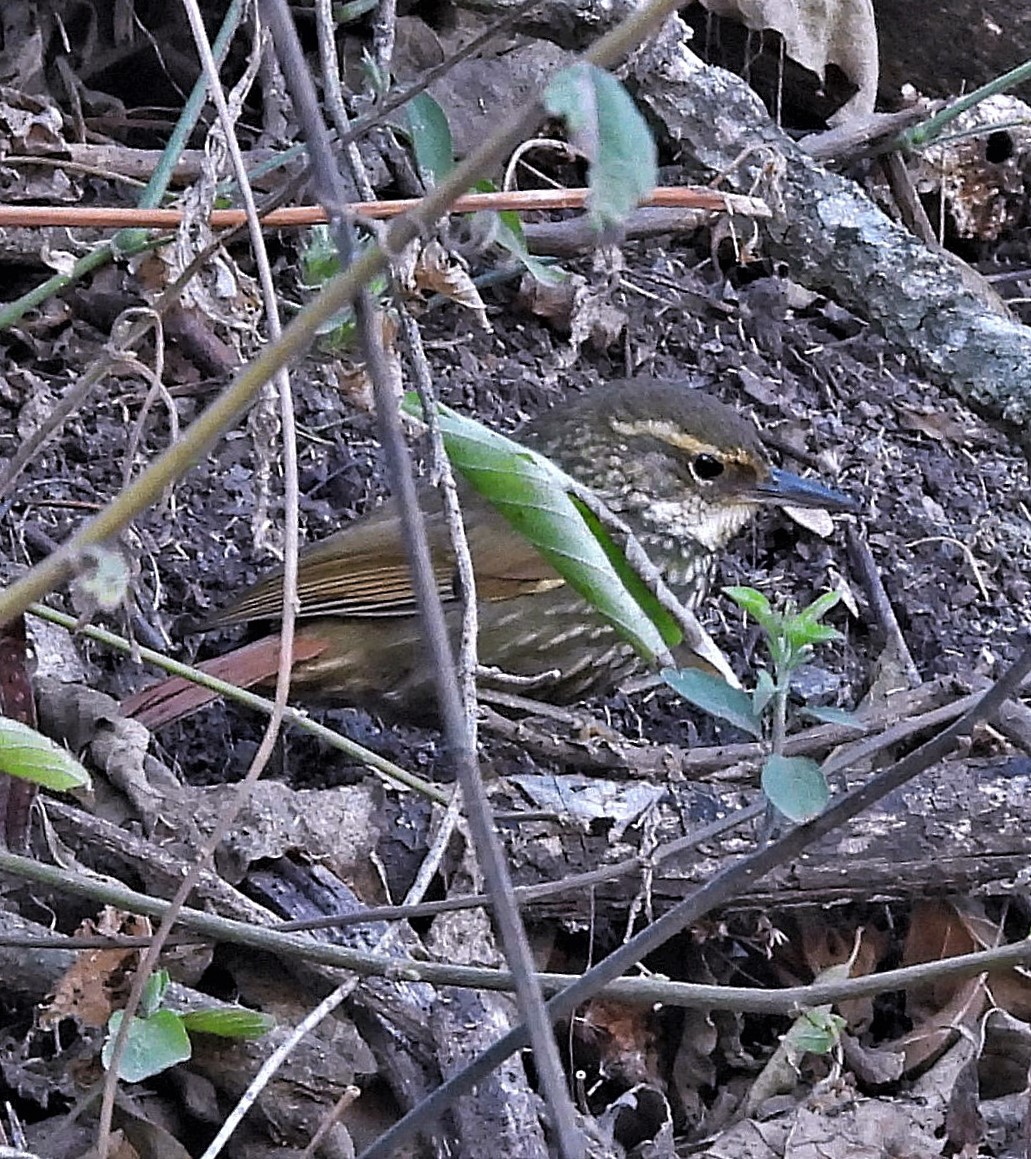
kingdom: Animalia
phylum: Chordata
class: Aves
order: Passeriformes
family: Furnariidae
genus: Syndactyla
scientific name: Syndactyla rufosuperciliata
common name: Buff-browed foliage-gleaner
